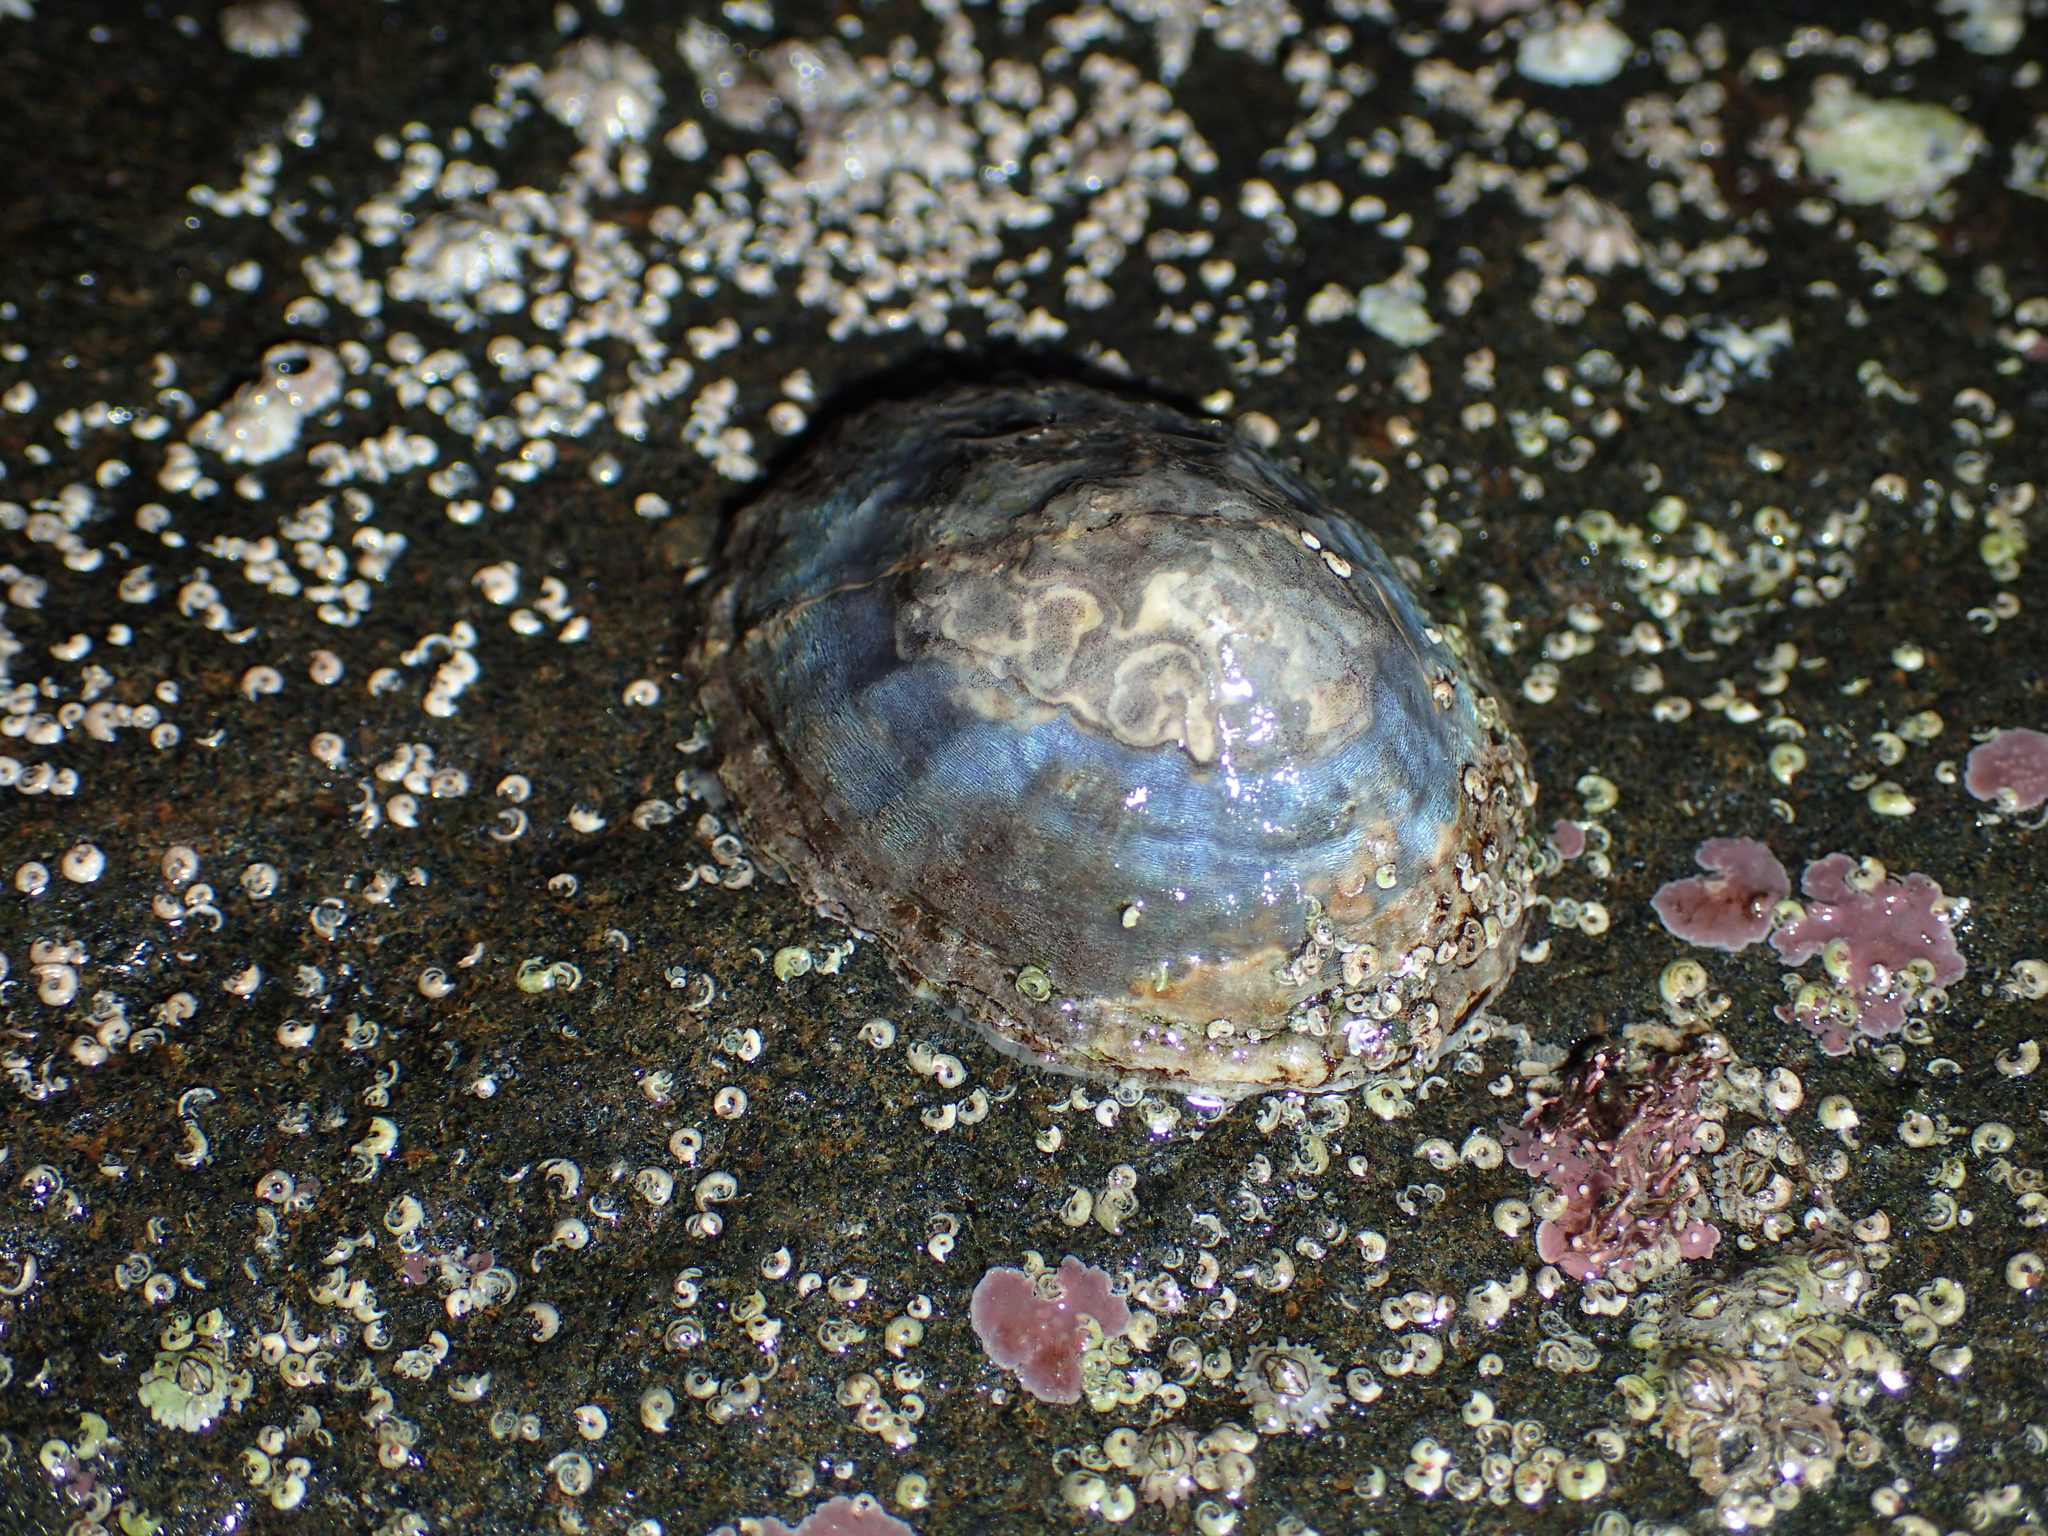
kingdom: Animalia
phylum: Mollusca
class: Gastropoda
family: Patellidae
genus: Patella
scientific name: Patella vulgata
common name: Common limpet
